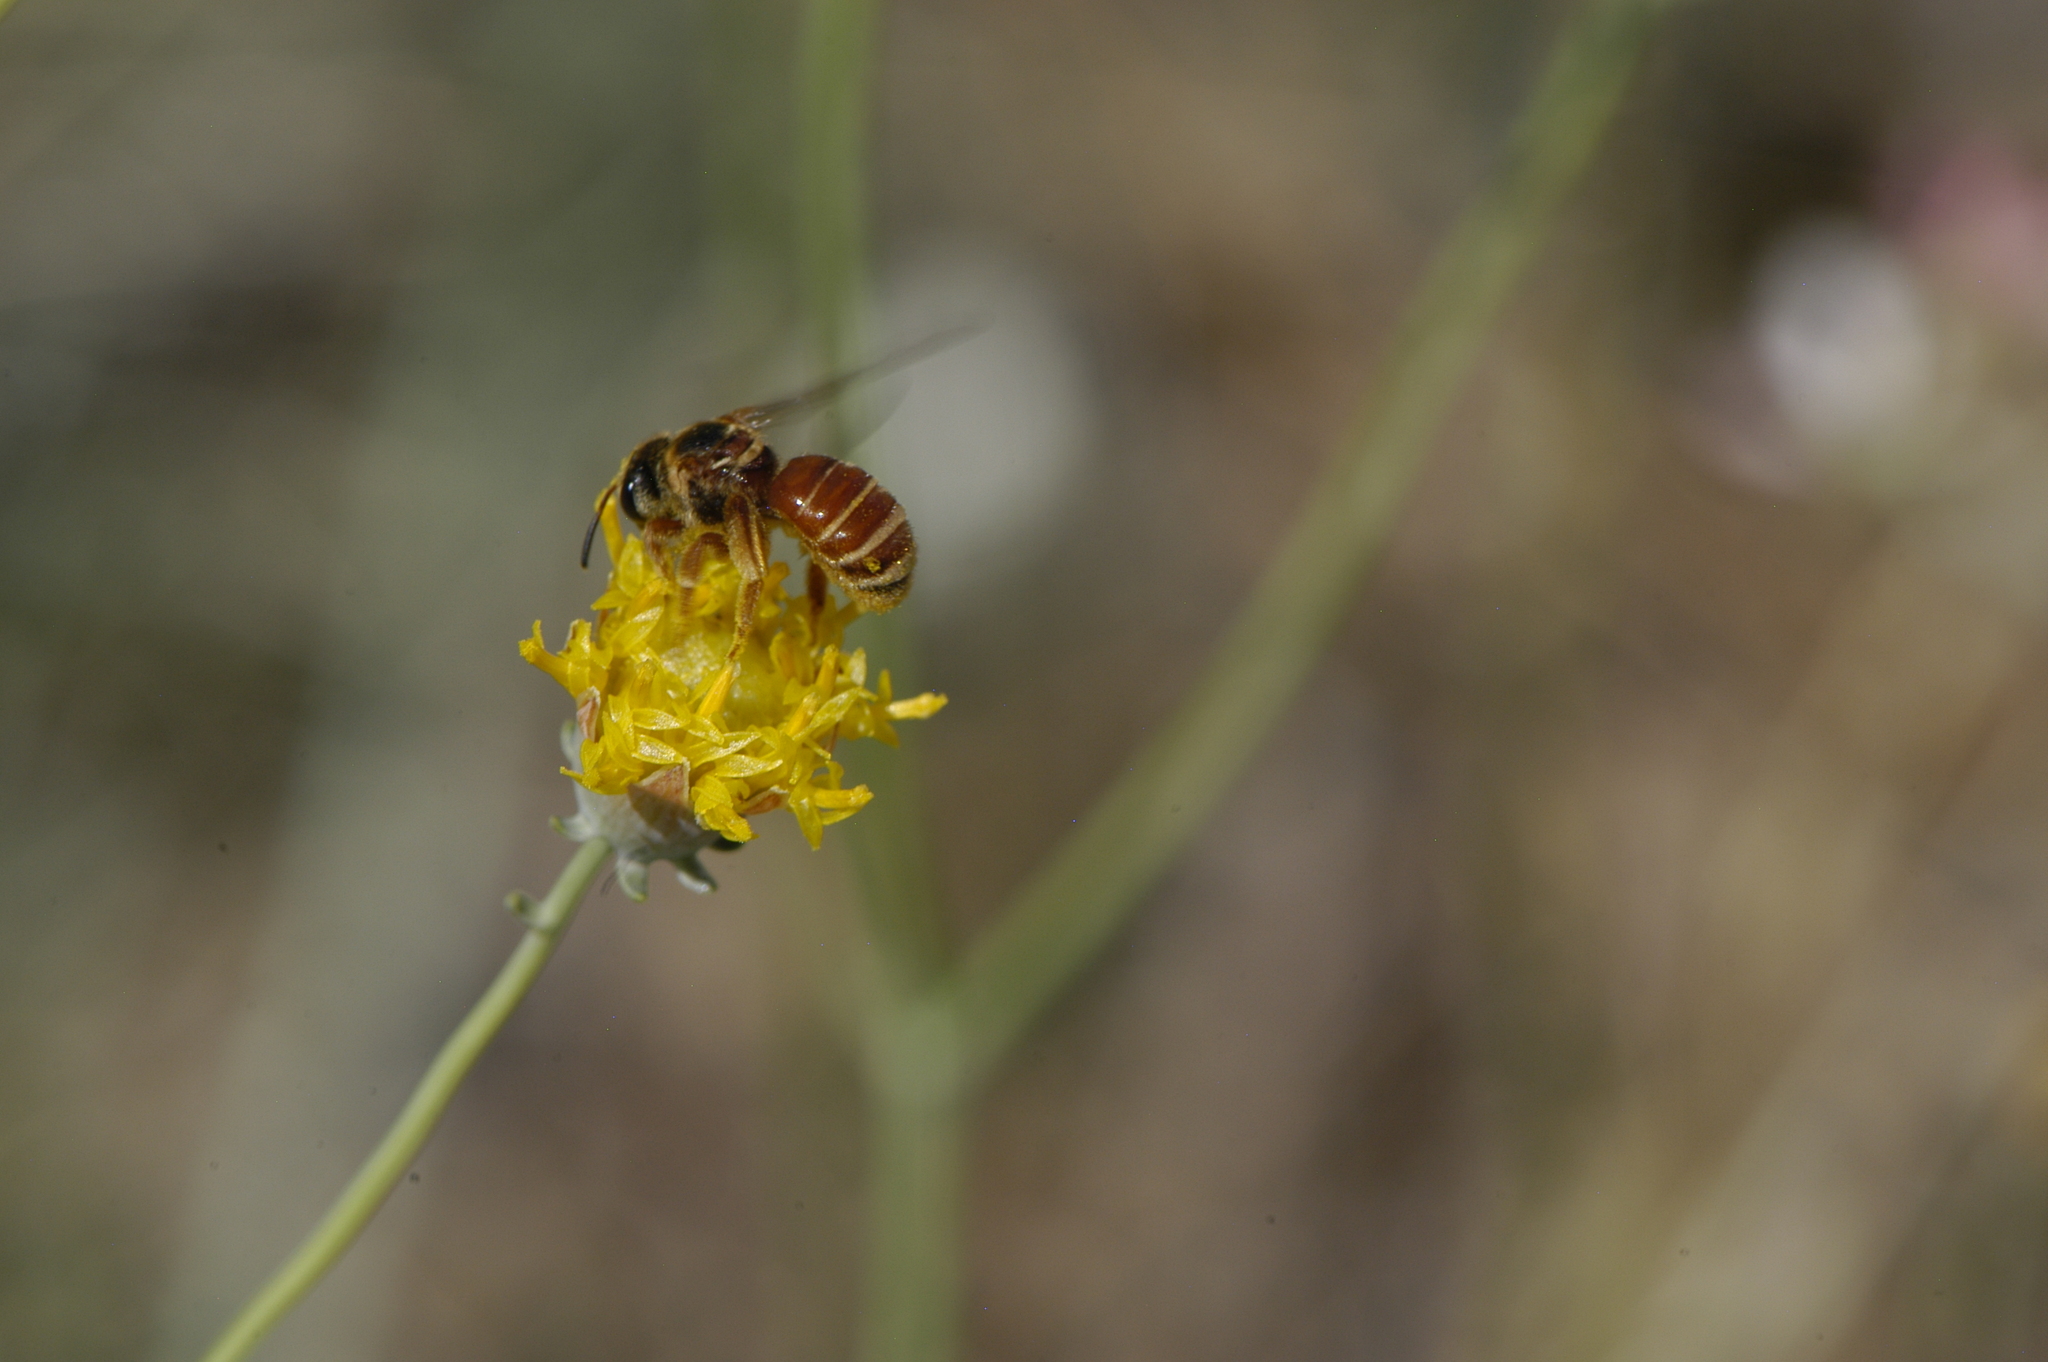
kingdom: Animalia
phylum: Arthropoda
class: Insecta
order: Hymenoptera
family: Halictidae
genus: Dieunomia
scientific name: Dieunomia nevadensis
